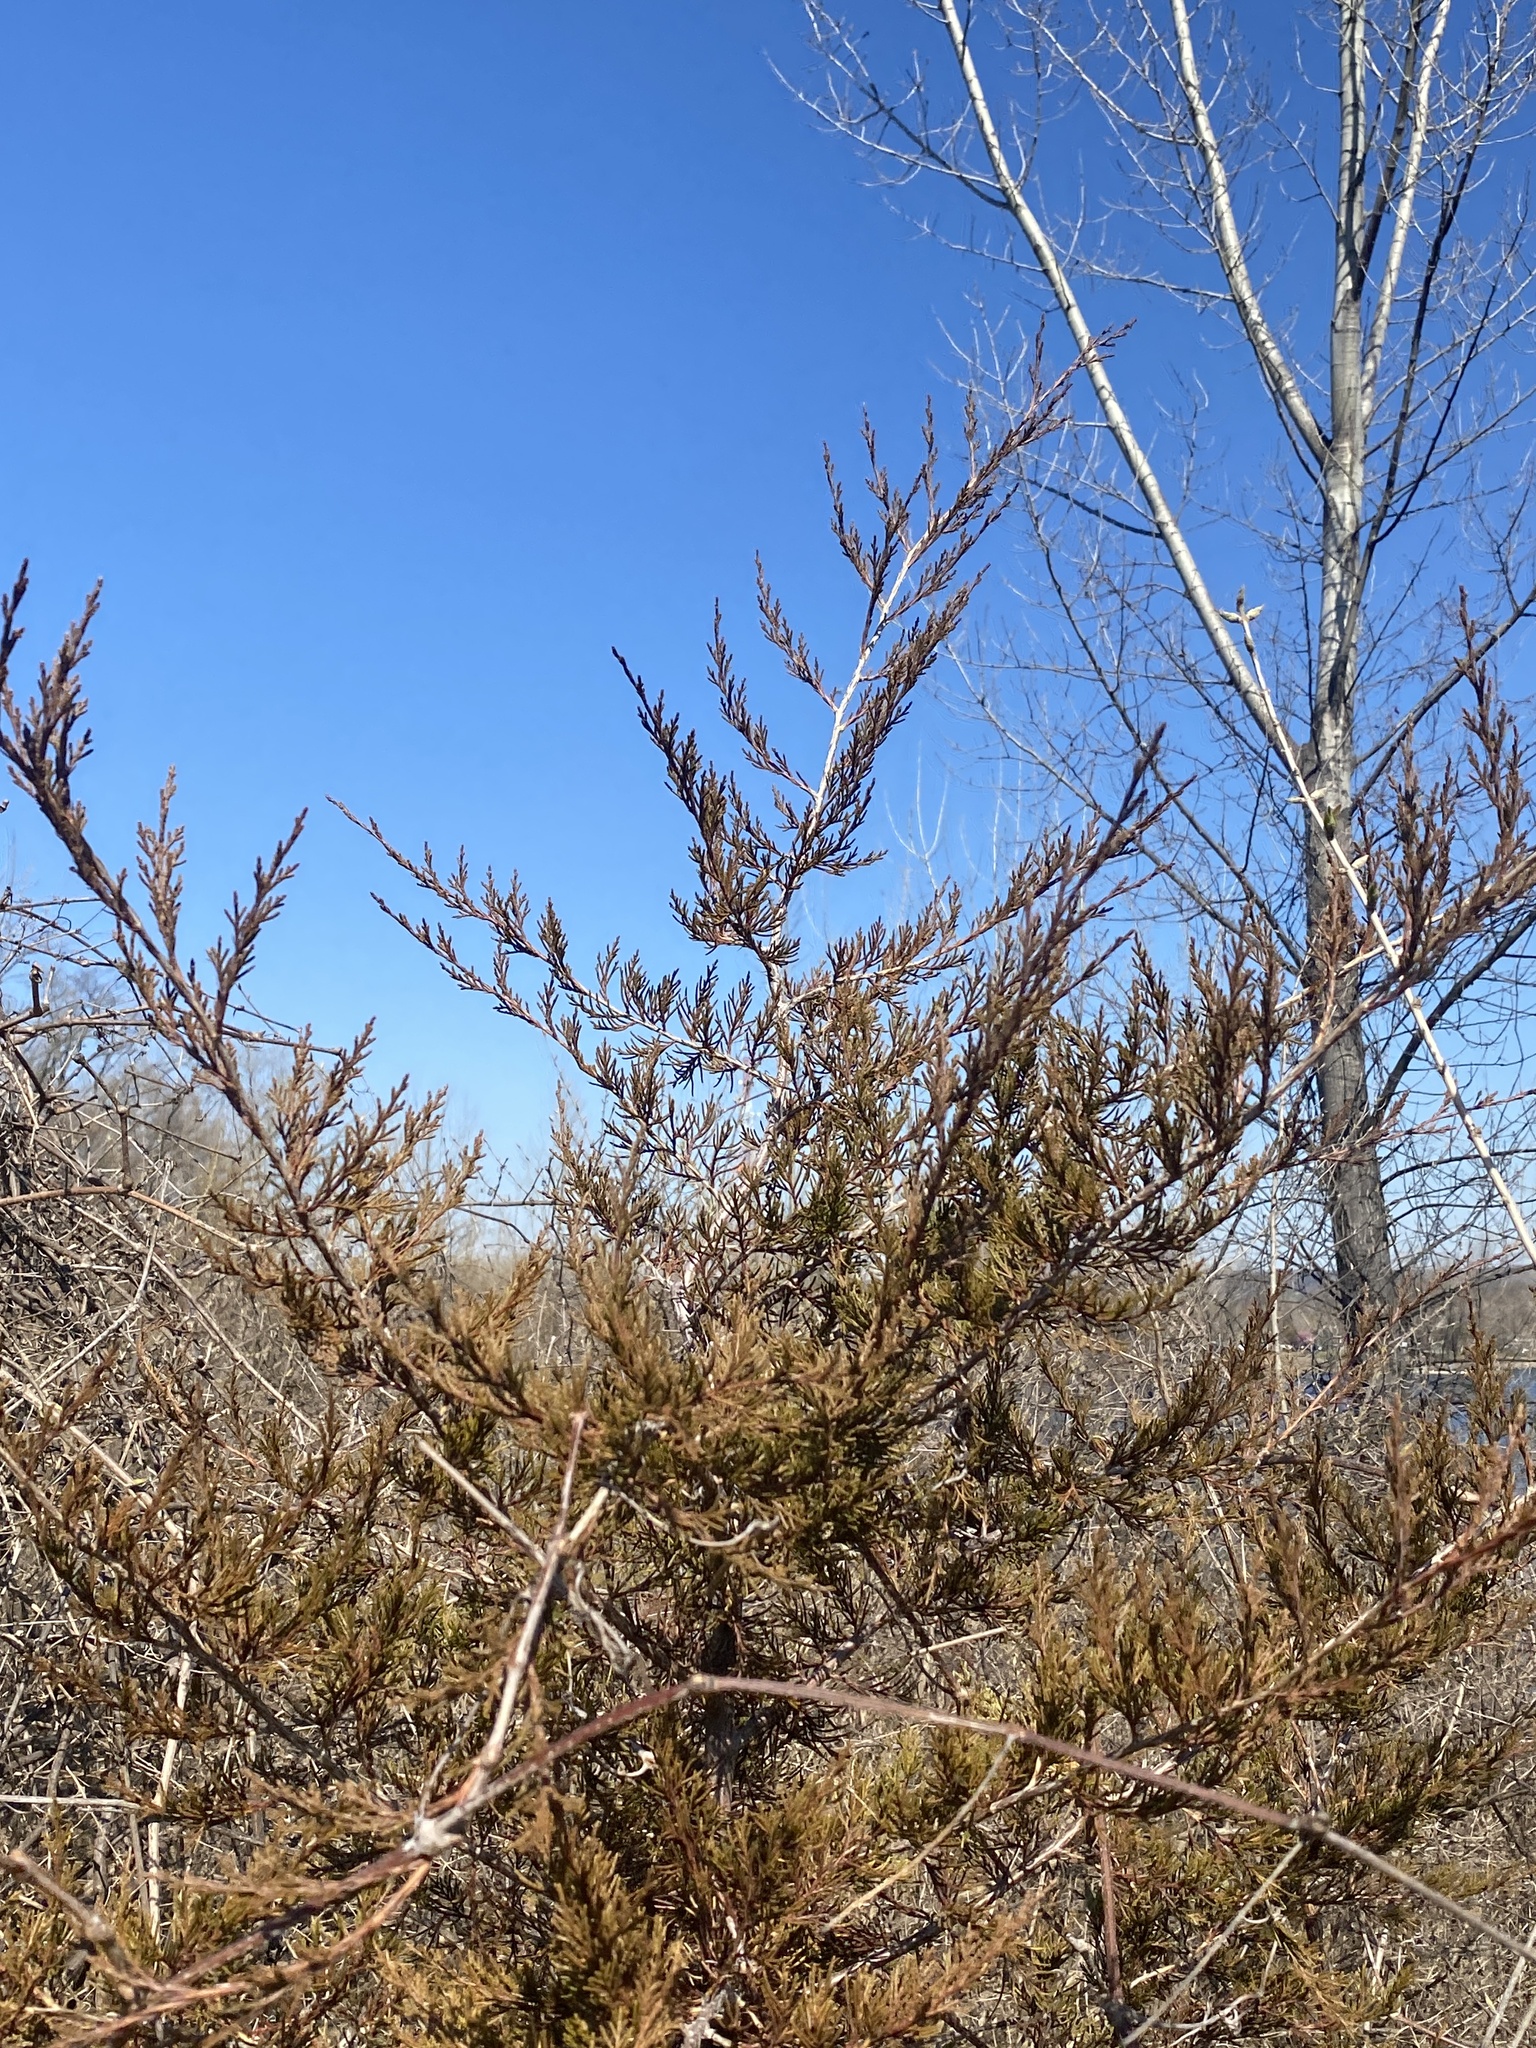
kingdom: Plantae
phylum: Tracheophyta
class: Pinopsida
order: Pinales
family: Cupressaceae
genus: Juniperus
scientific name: Juniperus virginiana
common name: Red juniper
